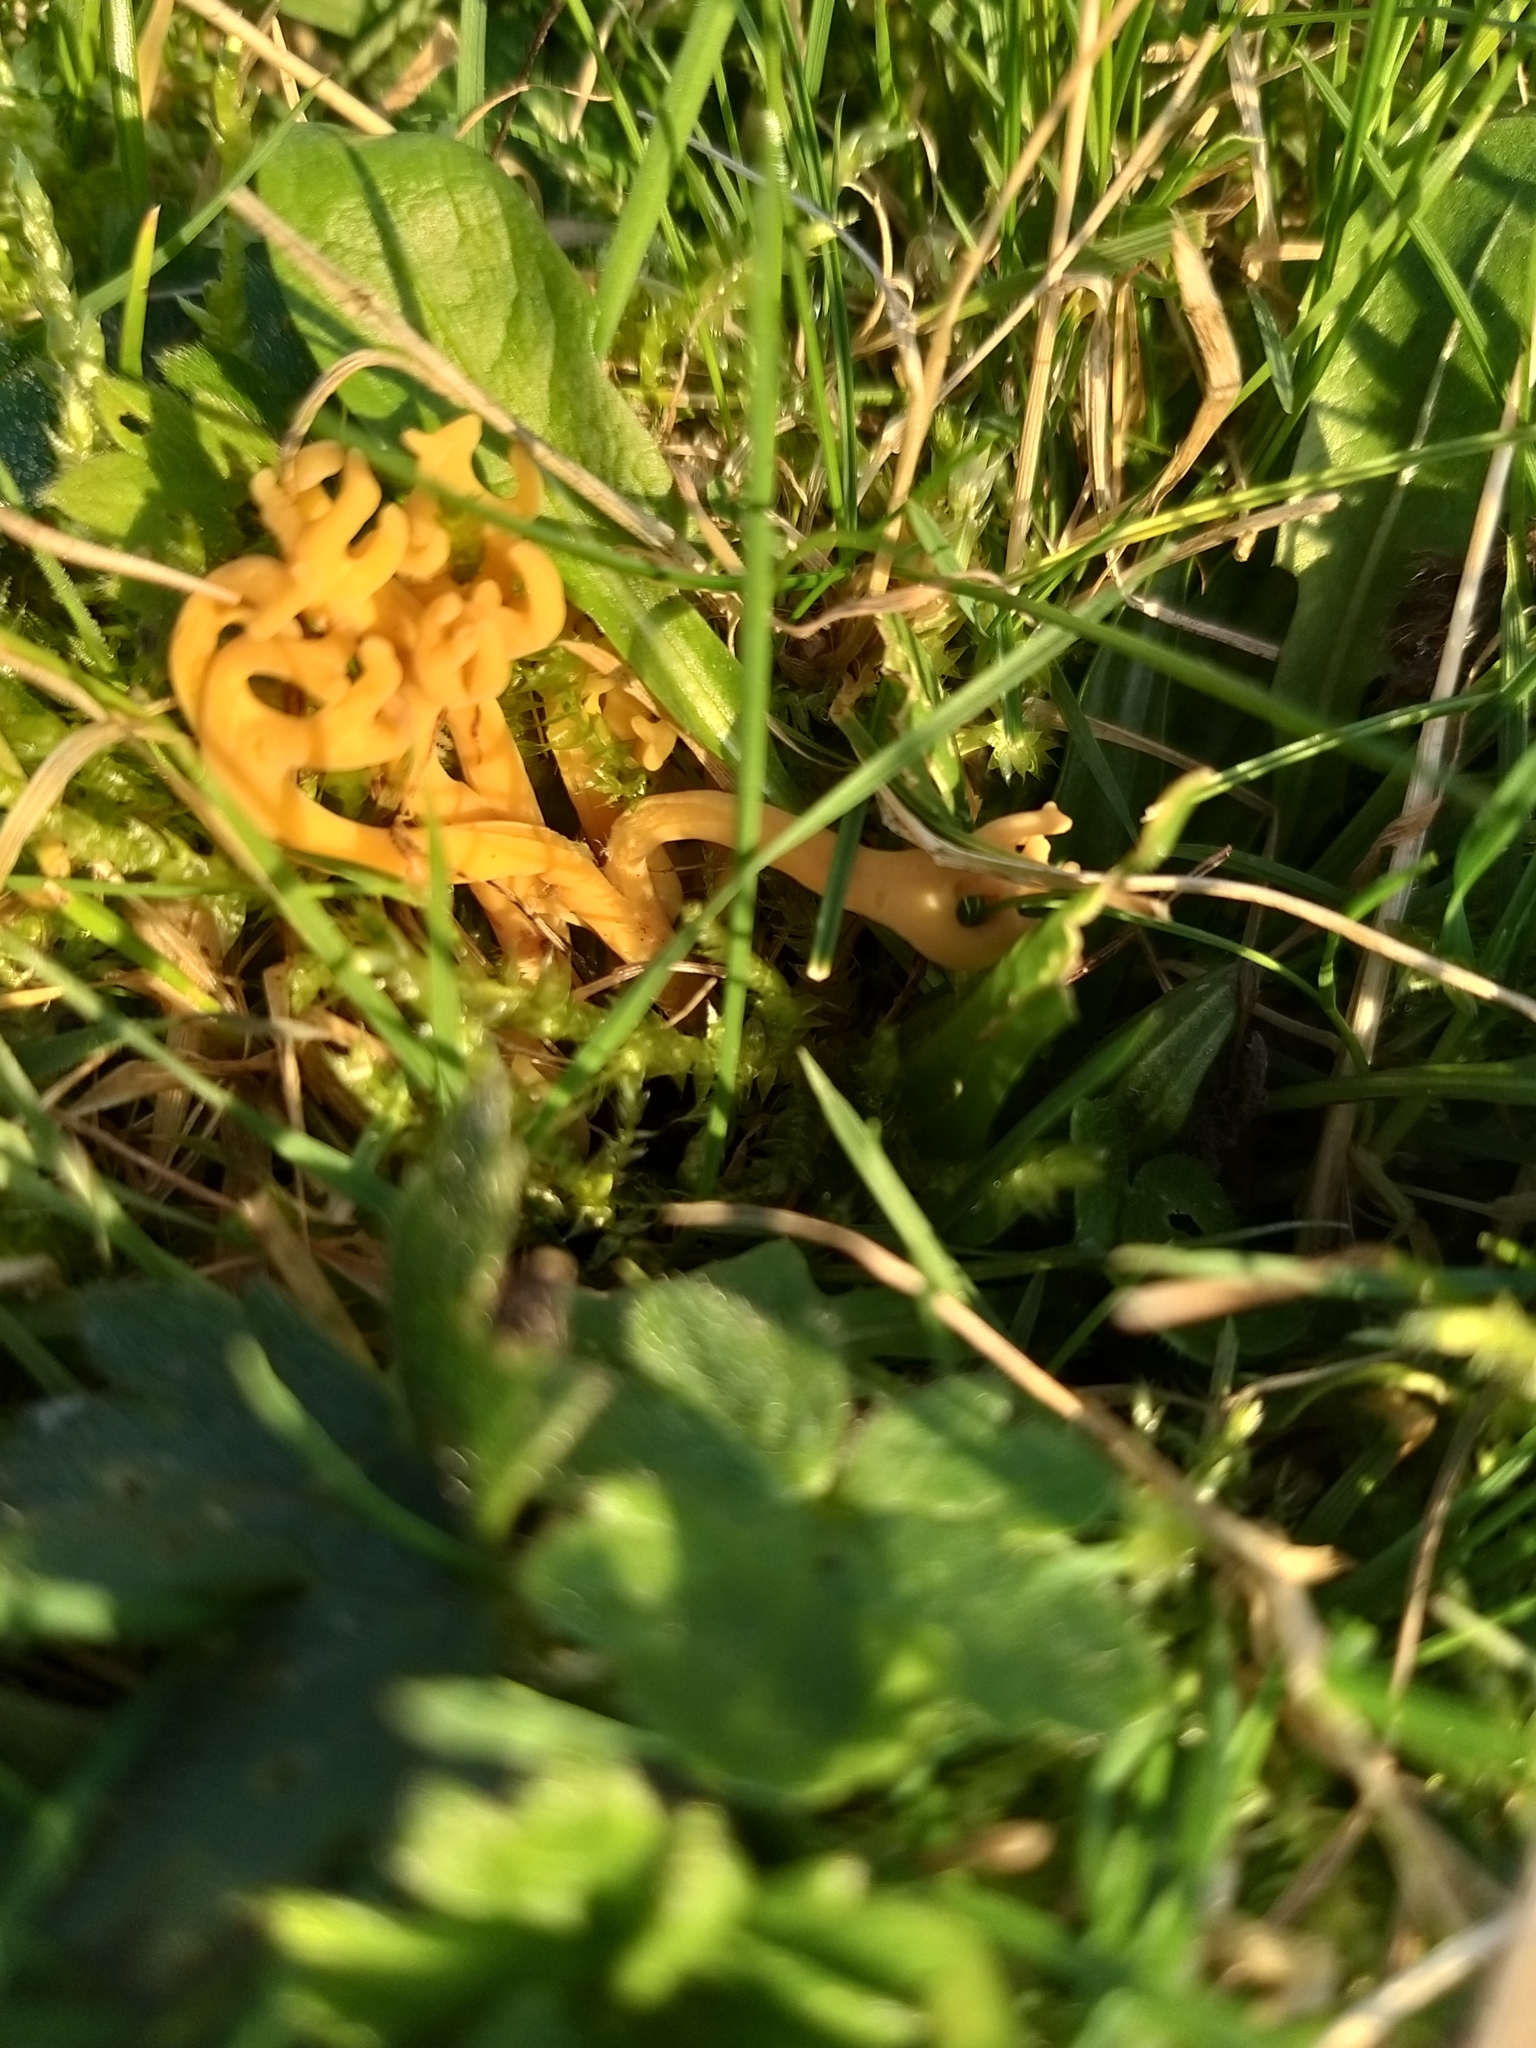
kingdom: Fungi
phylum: Basidiomycota
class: Agaricomycetes
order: Agaricales
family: Clavariaceae
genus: Clavulinopsis
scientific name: Clavulinopsis corniculata
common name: Meadow coral
